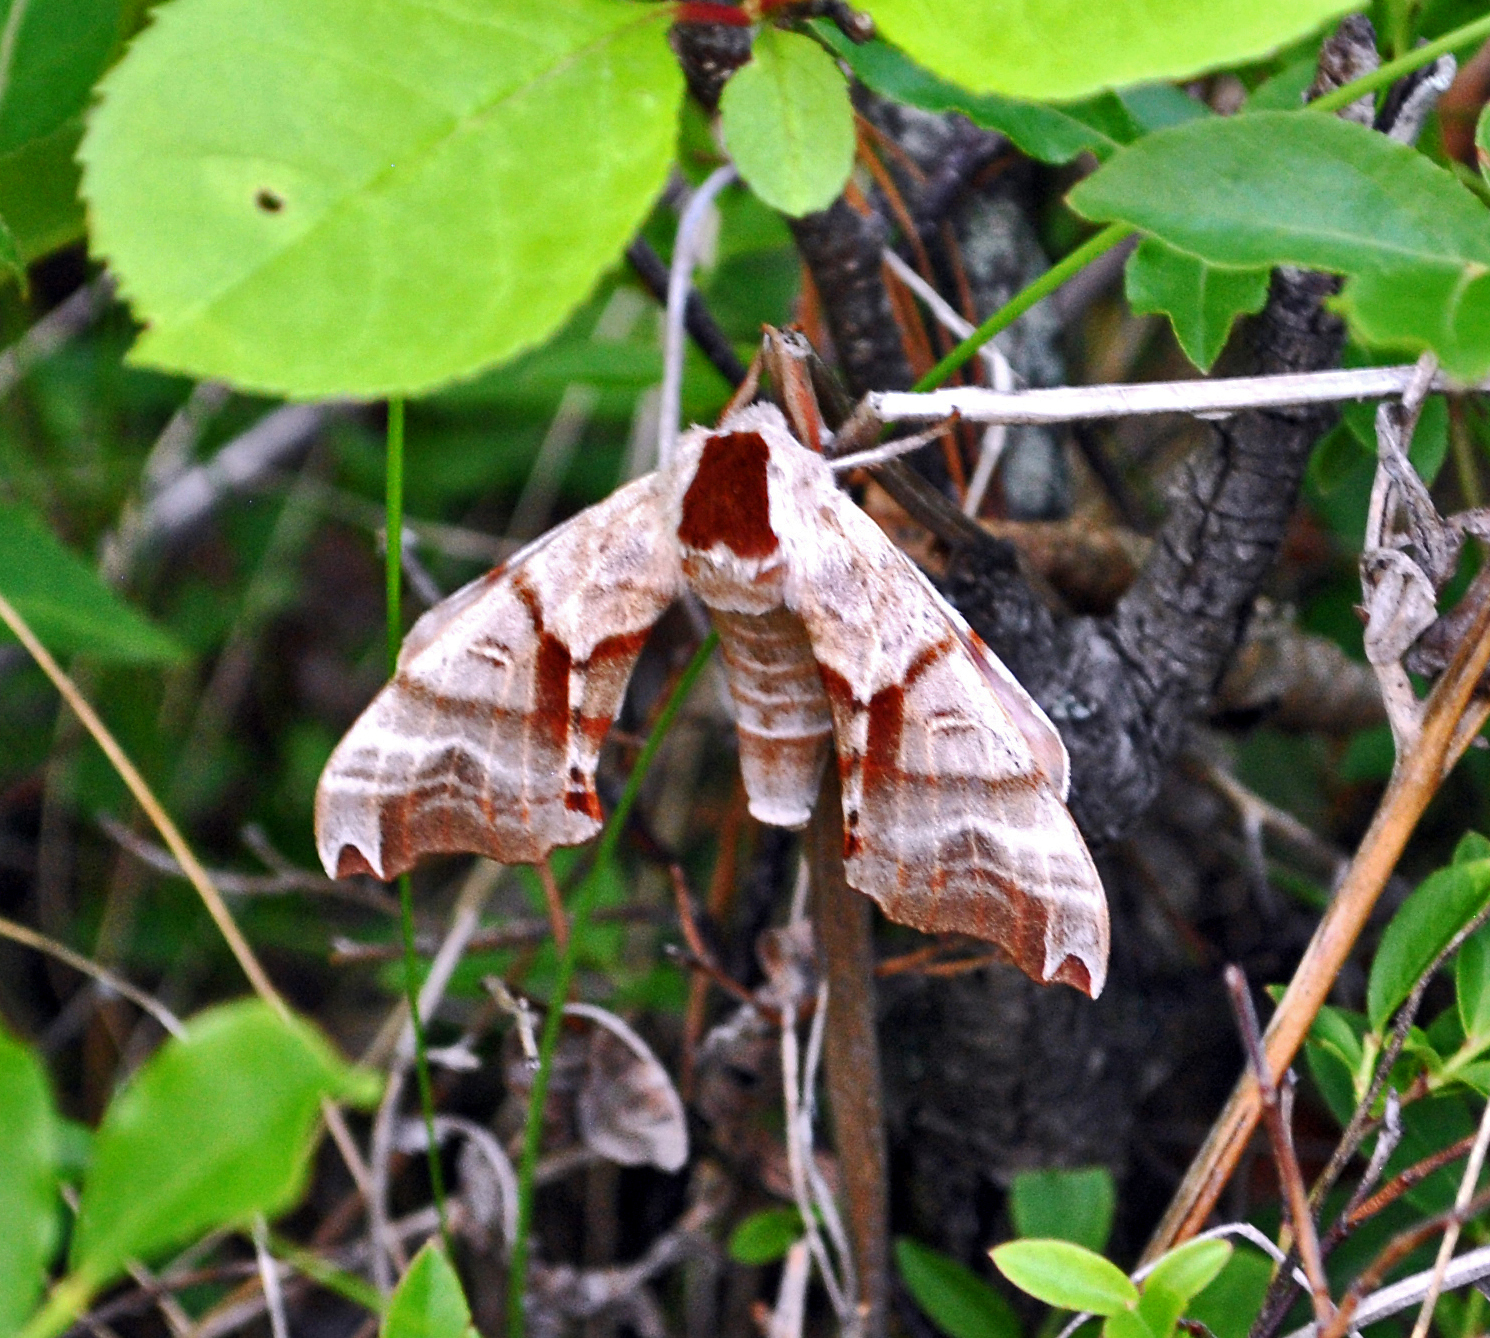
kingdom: Animalia
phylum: Arthropoda
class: Insecta
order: Lepidoptera
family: Sphingidae
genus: Smerinthus
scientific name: Smerinthus jamaicensis
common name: Twin spotted sphinx
